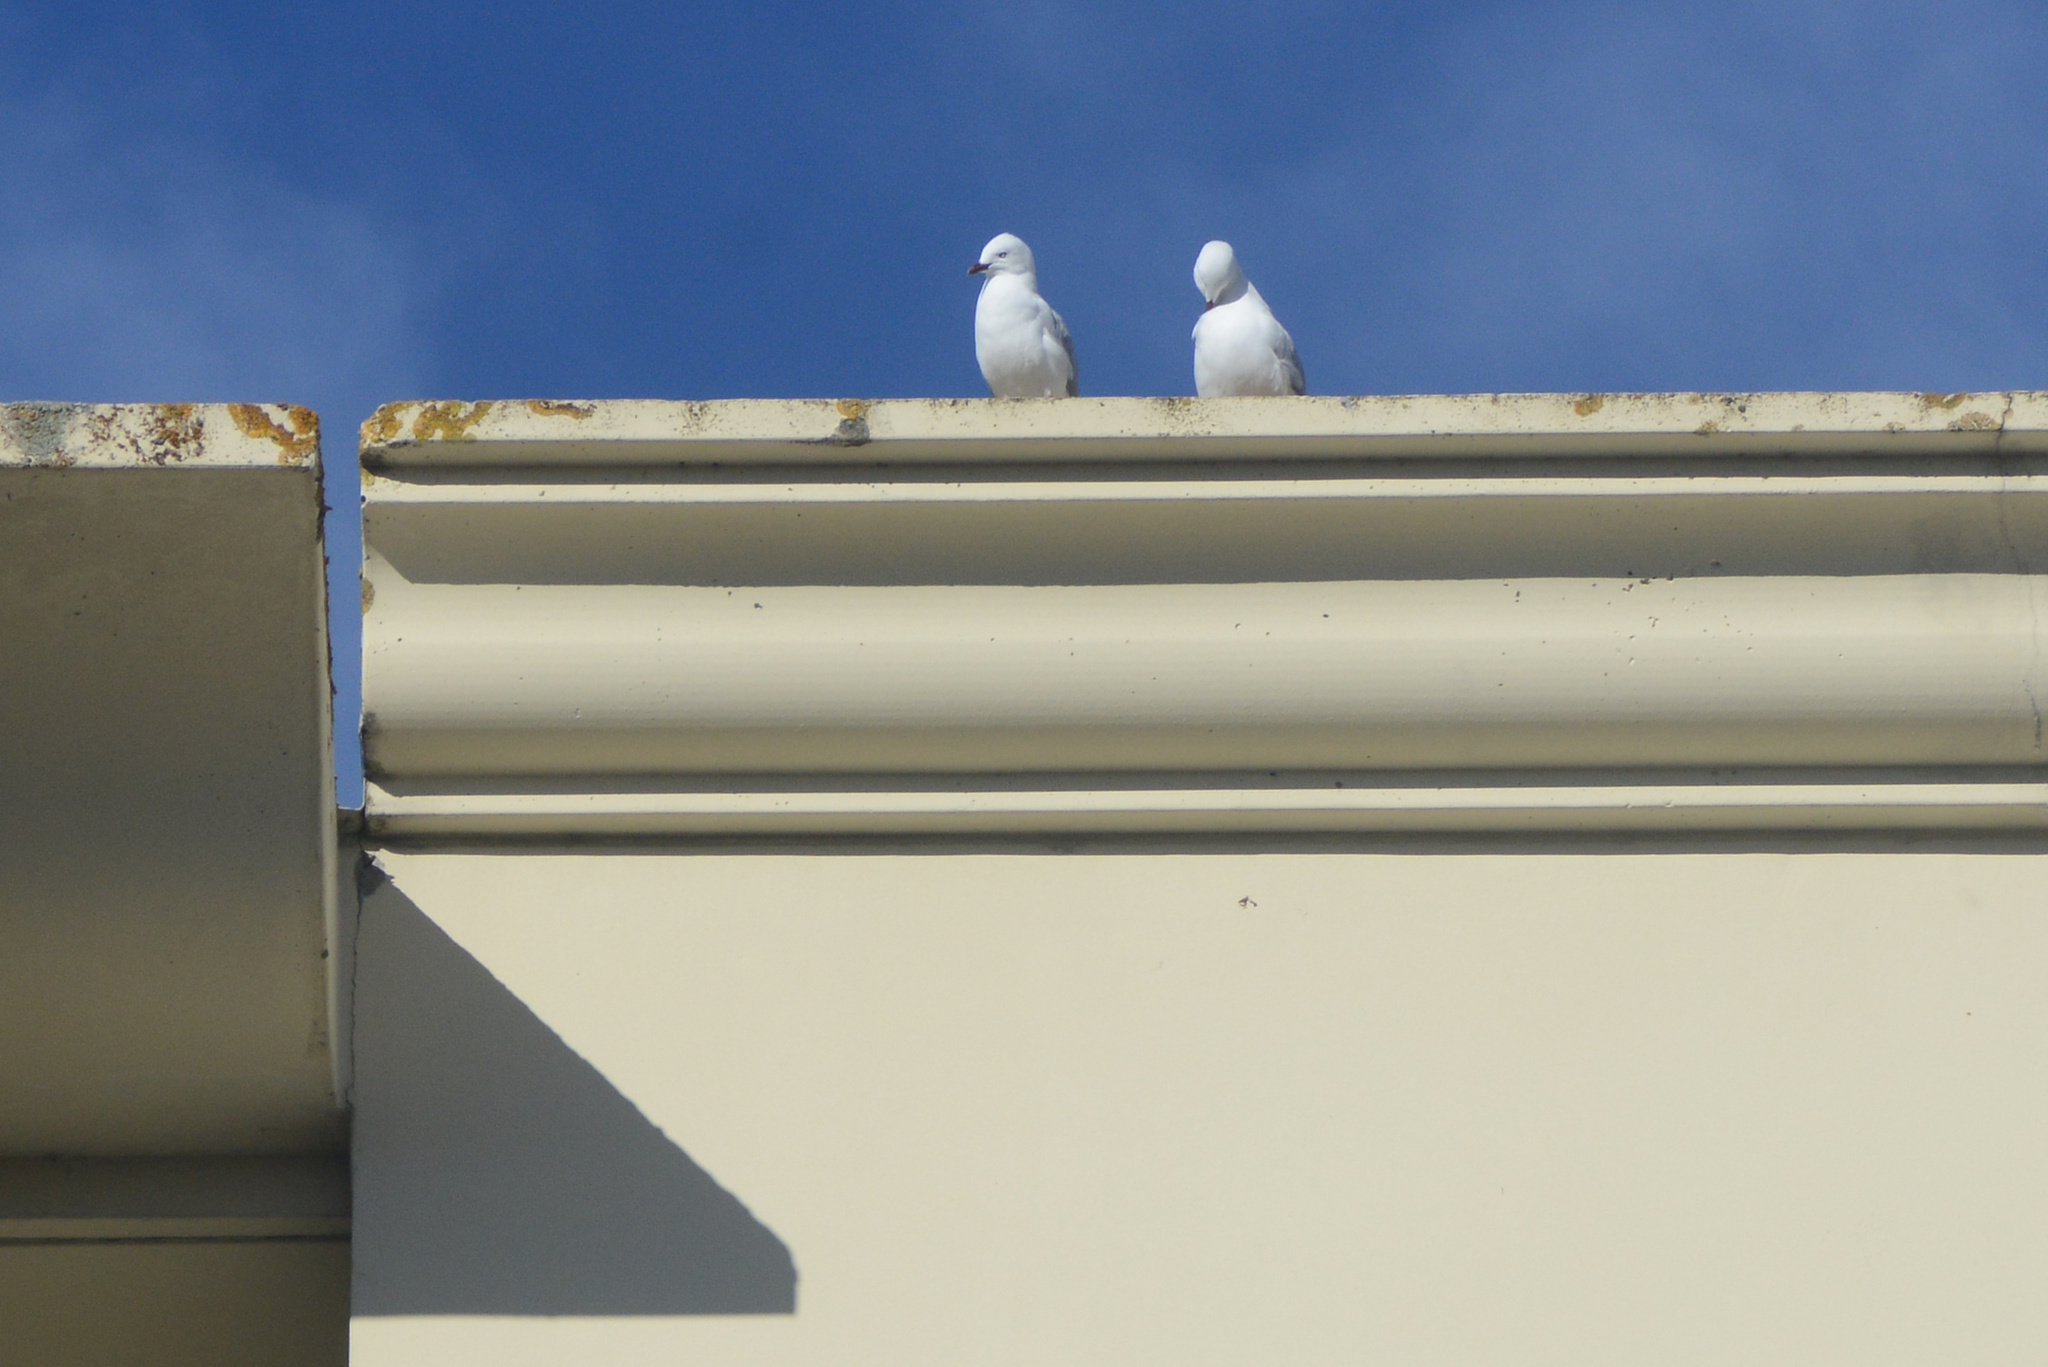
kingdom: Animalia
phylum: Chordata
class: Aves
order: Charadriiformes
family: Laridae
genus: Chroicocephalus
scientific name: Chroicocephalus novaehollandiae
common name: Silver gull
